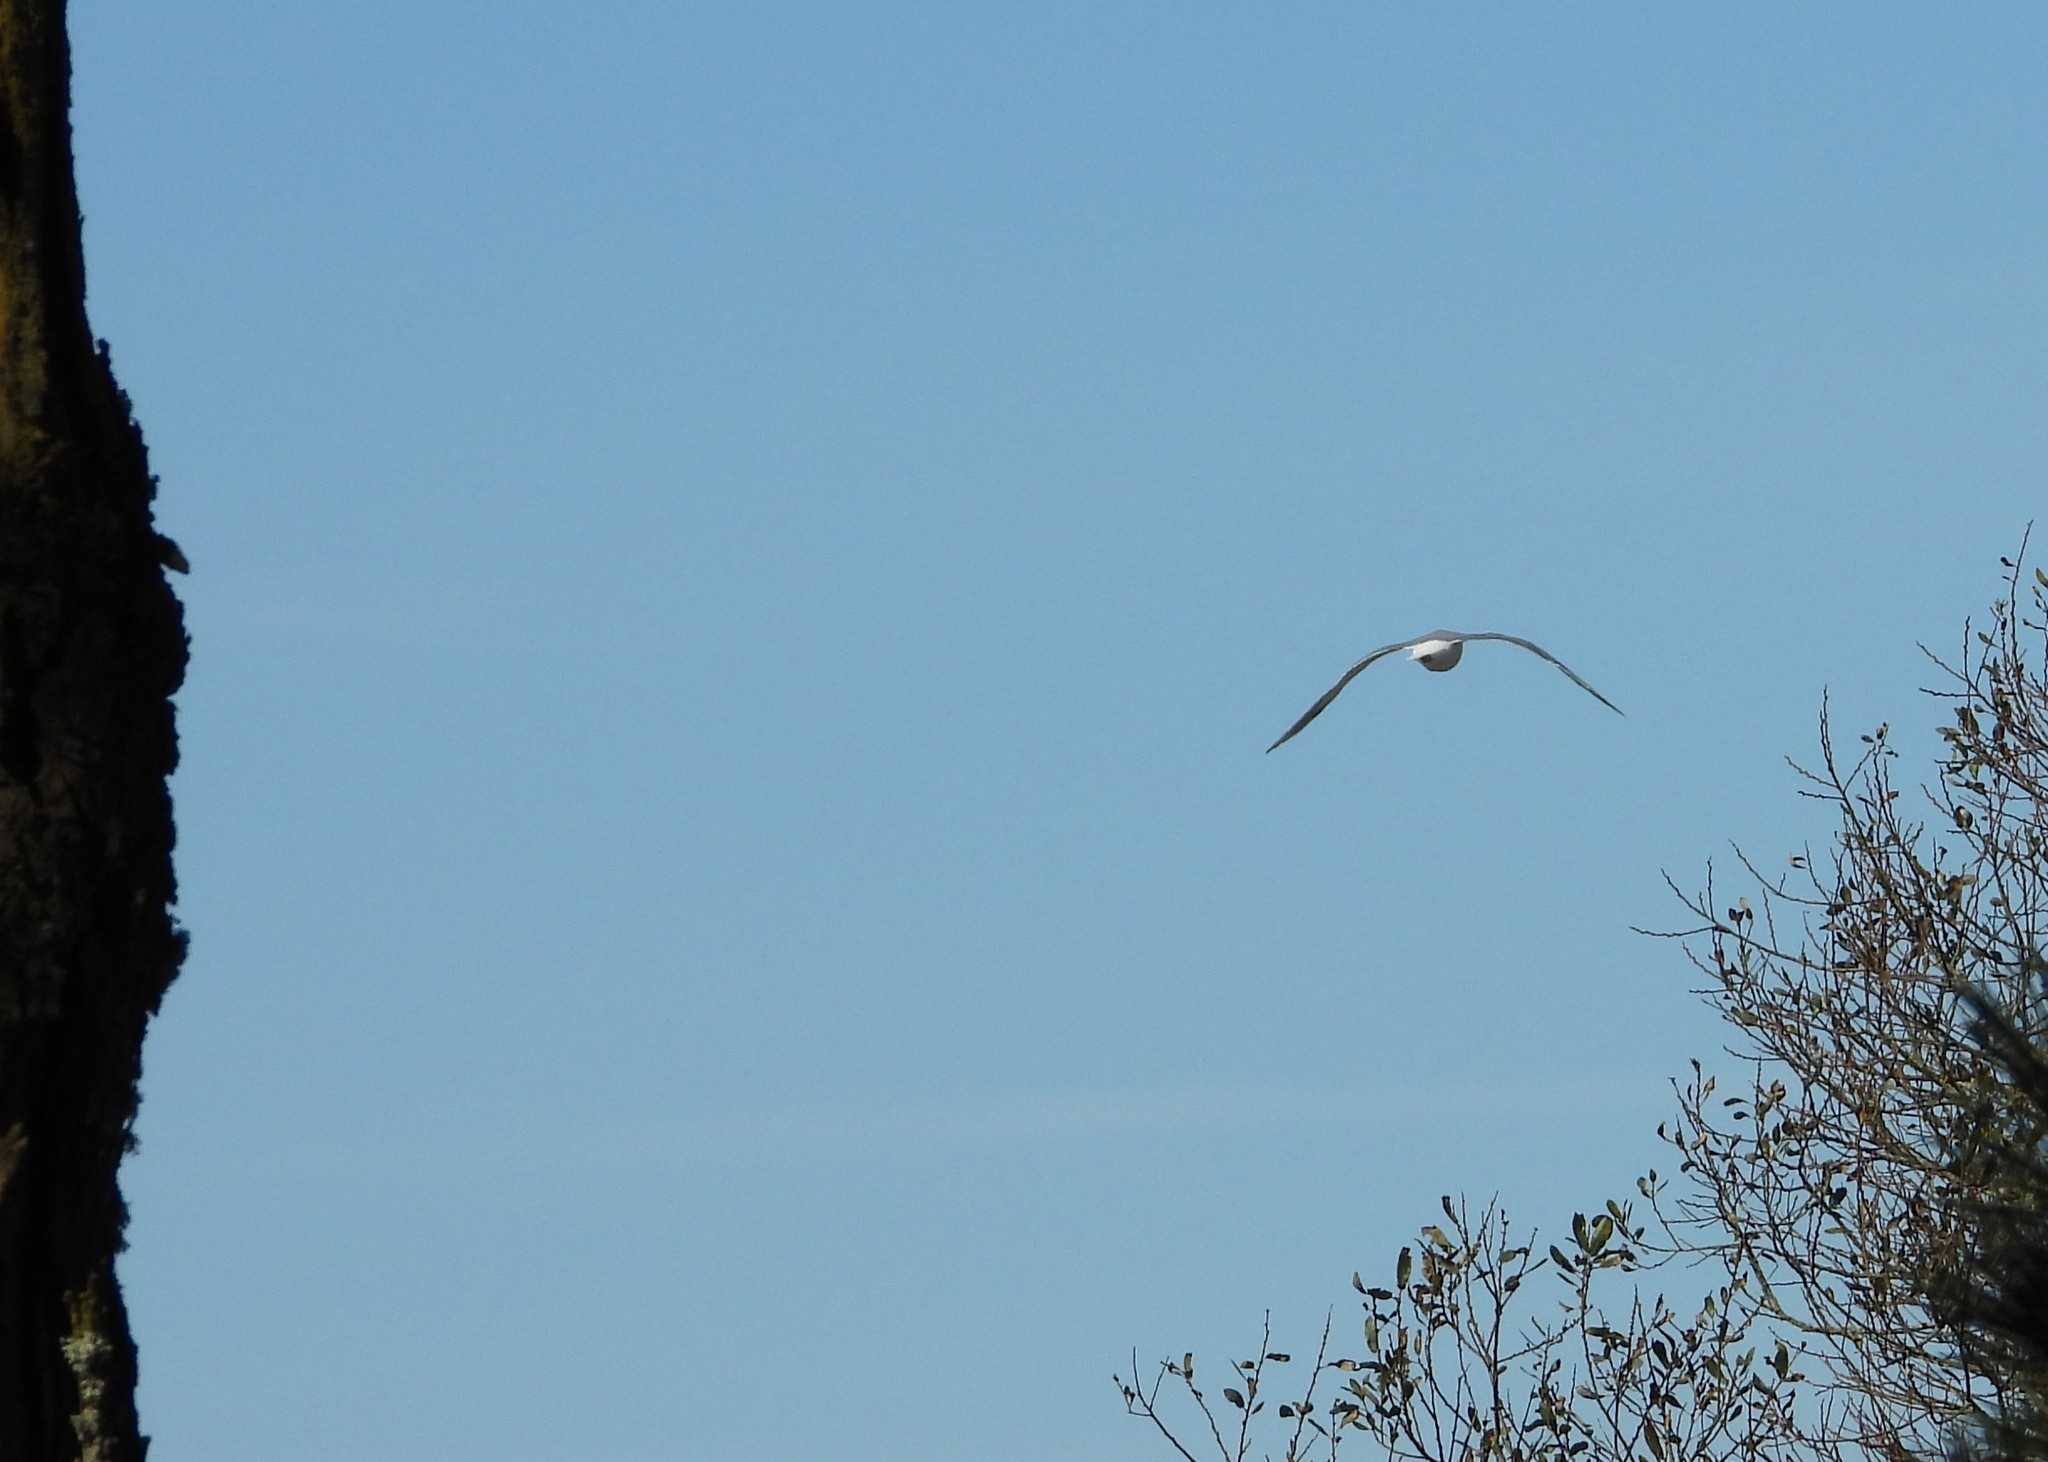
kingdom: Animalia
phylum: Chordata
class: Aves
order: Charadriiformes
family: Laridae
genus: Larus
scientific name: Larus glaucescens
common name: Glaucous-winged gull
